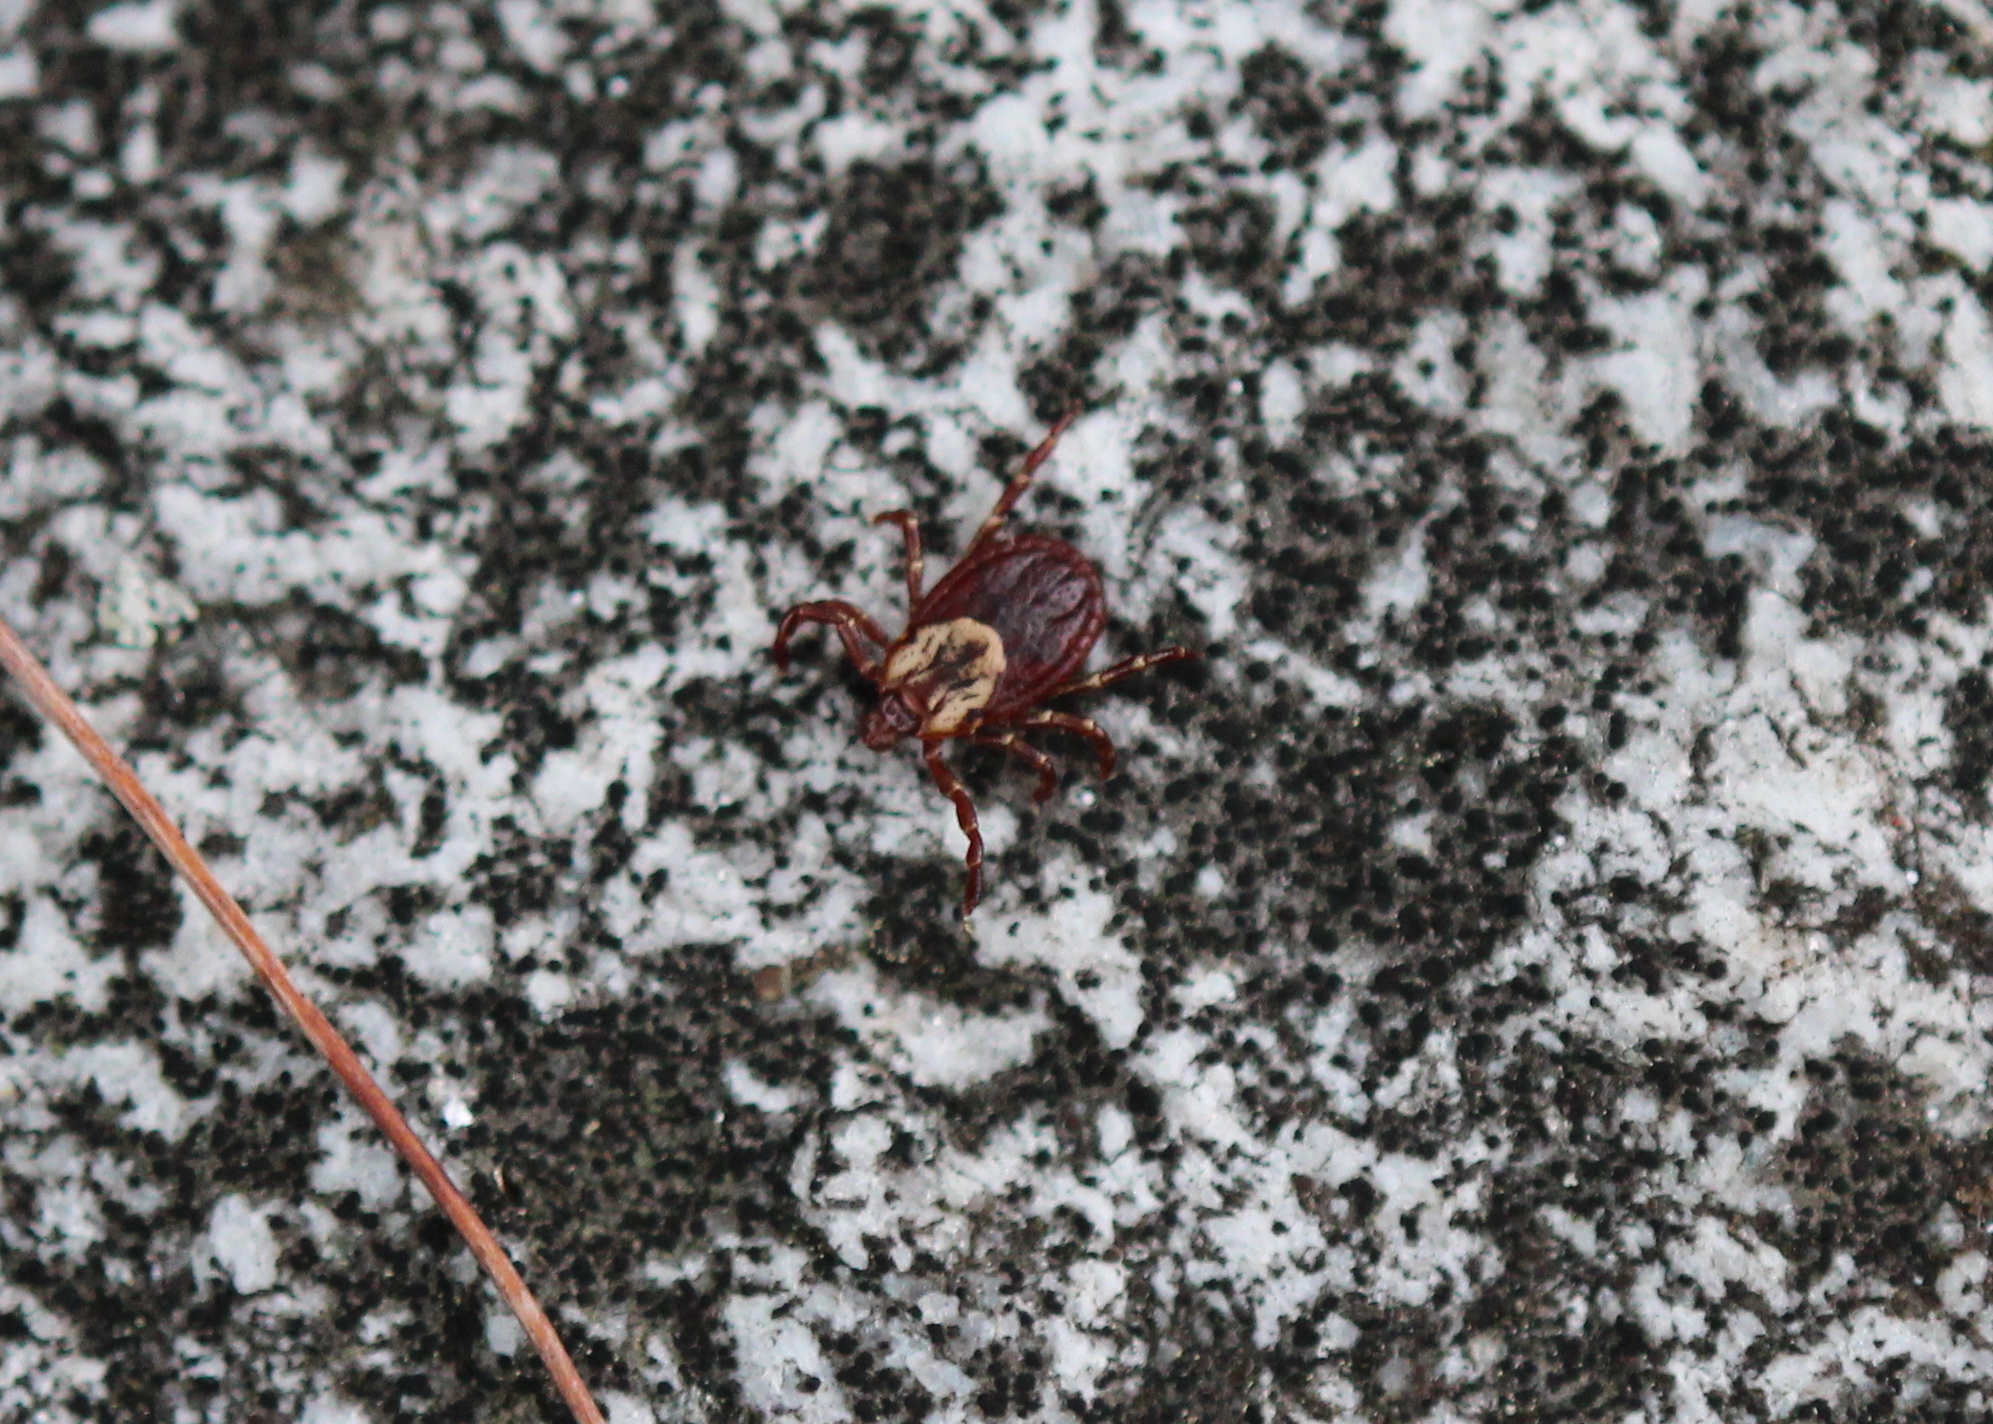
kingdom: Animalia
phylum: Arthropoda
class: Arachnida
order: Ixodida
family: Ixodidae
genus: Dermacentor
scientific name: Dermacentor variabilis
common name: American dog tick
